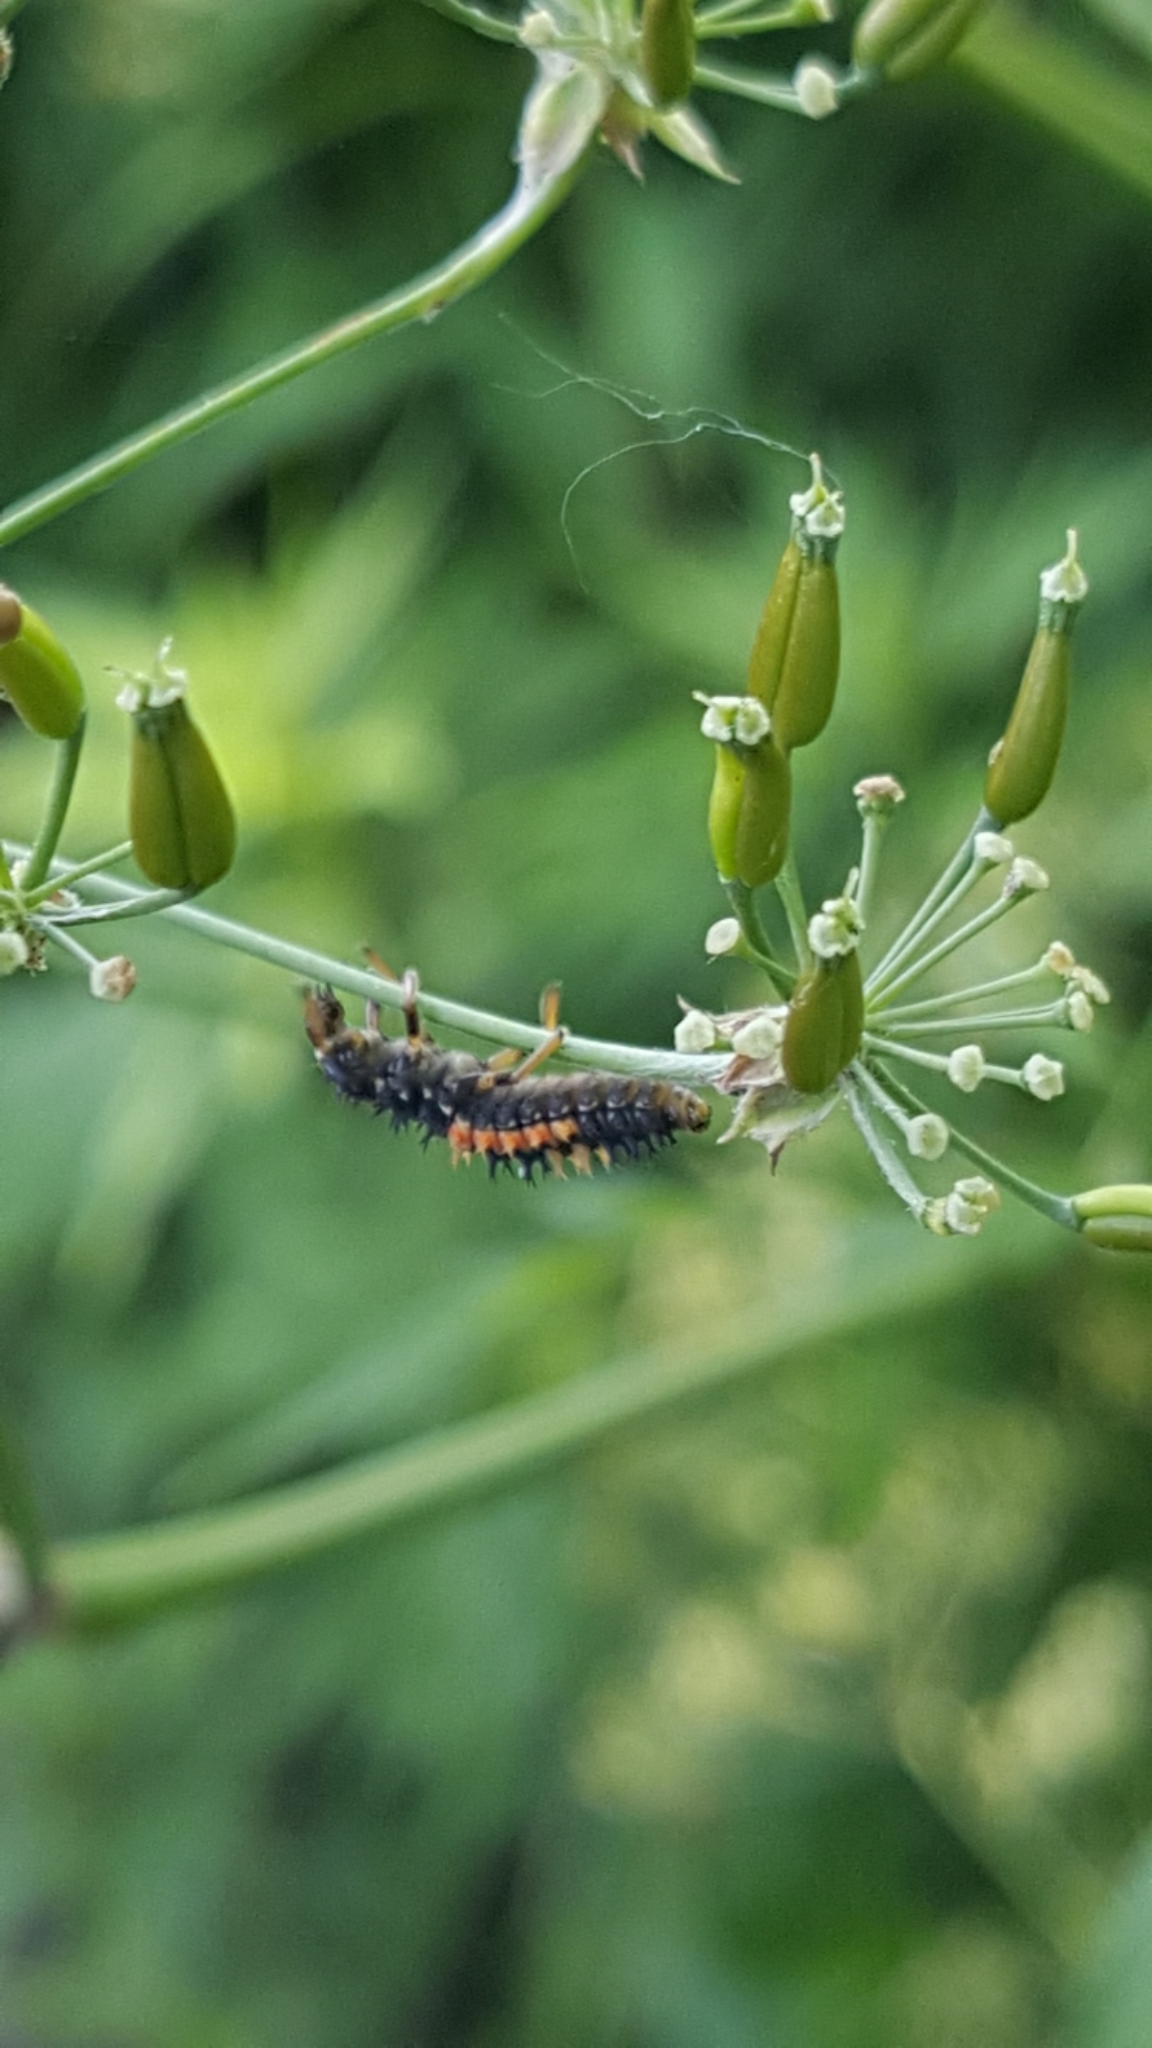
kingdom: Animalia
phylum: Arthropoda
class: Insecta
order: Coleoptera
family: Coccinellidae
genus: Harmonia
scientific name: Harmonia axyridis
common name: Harlequin ladybird
